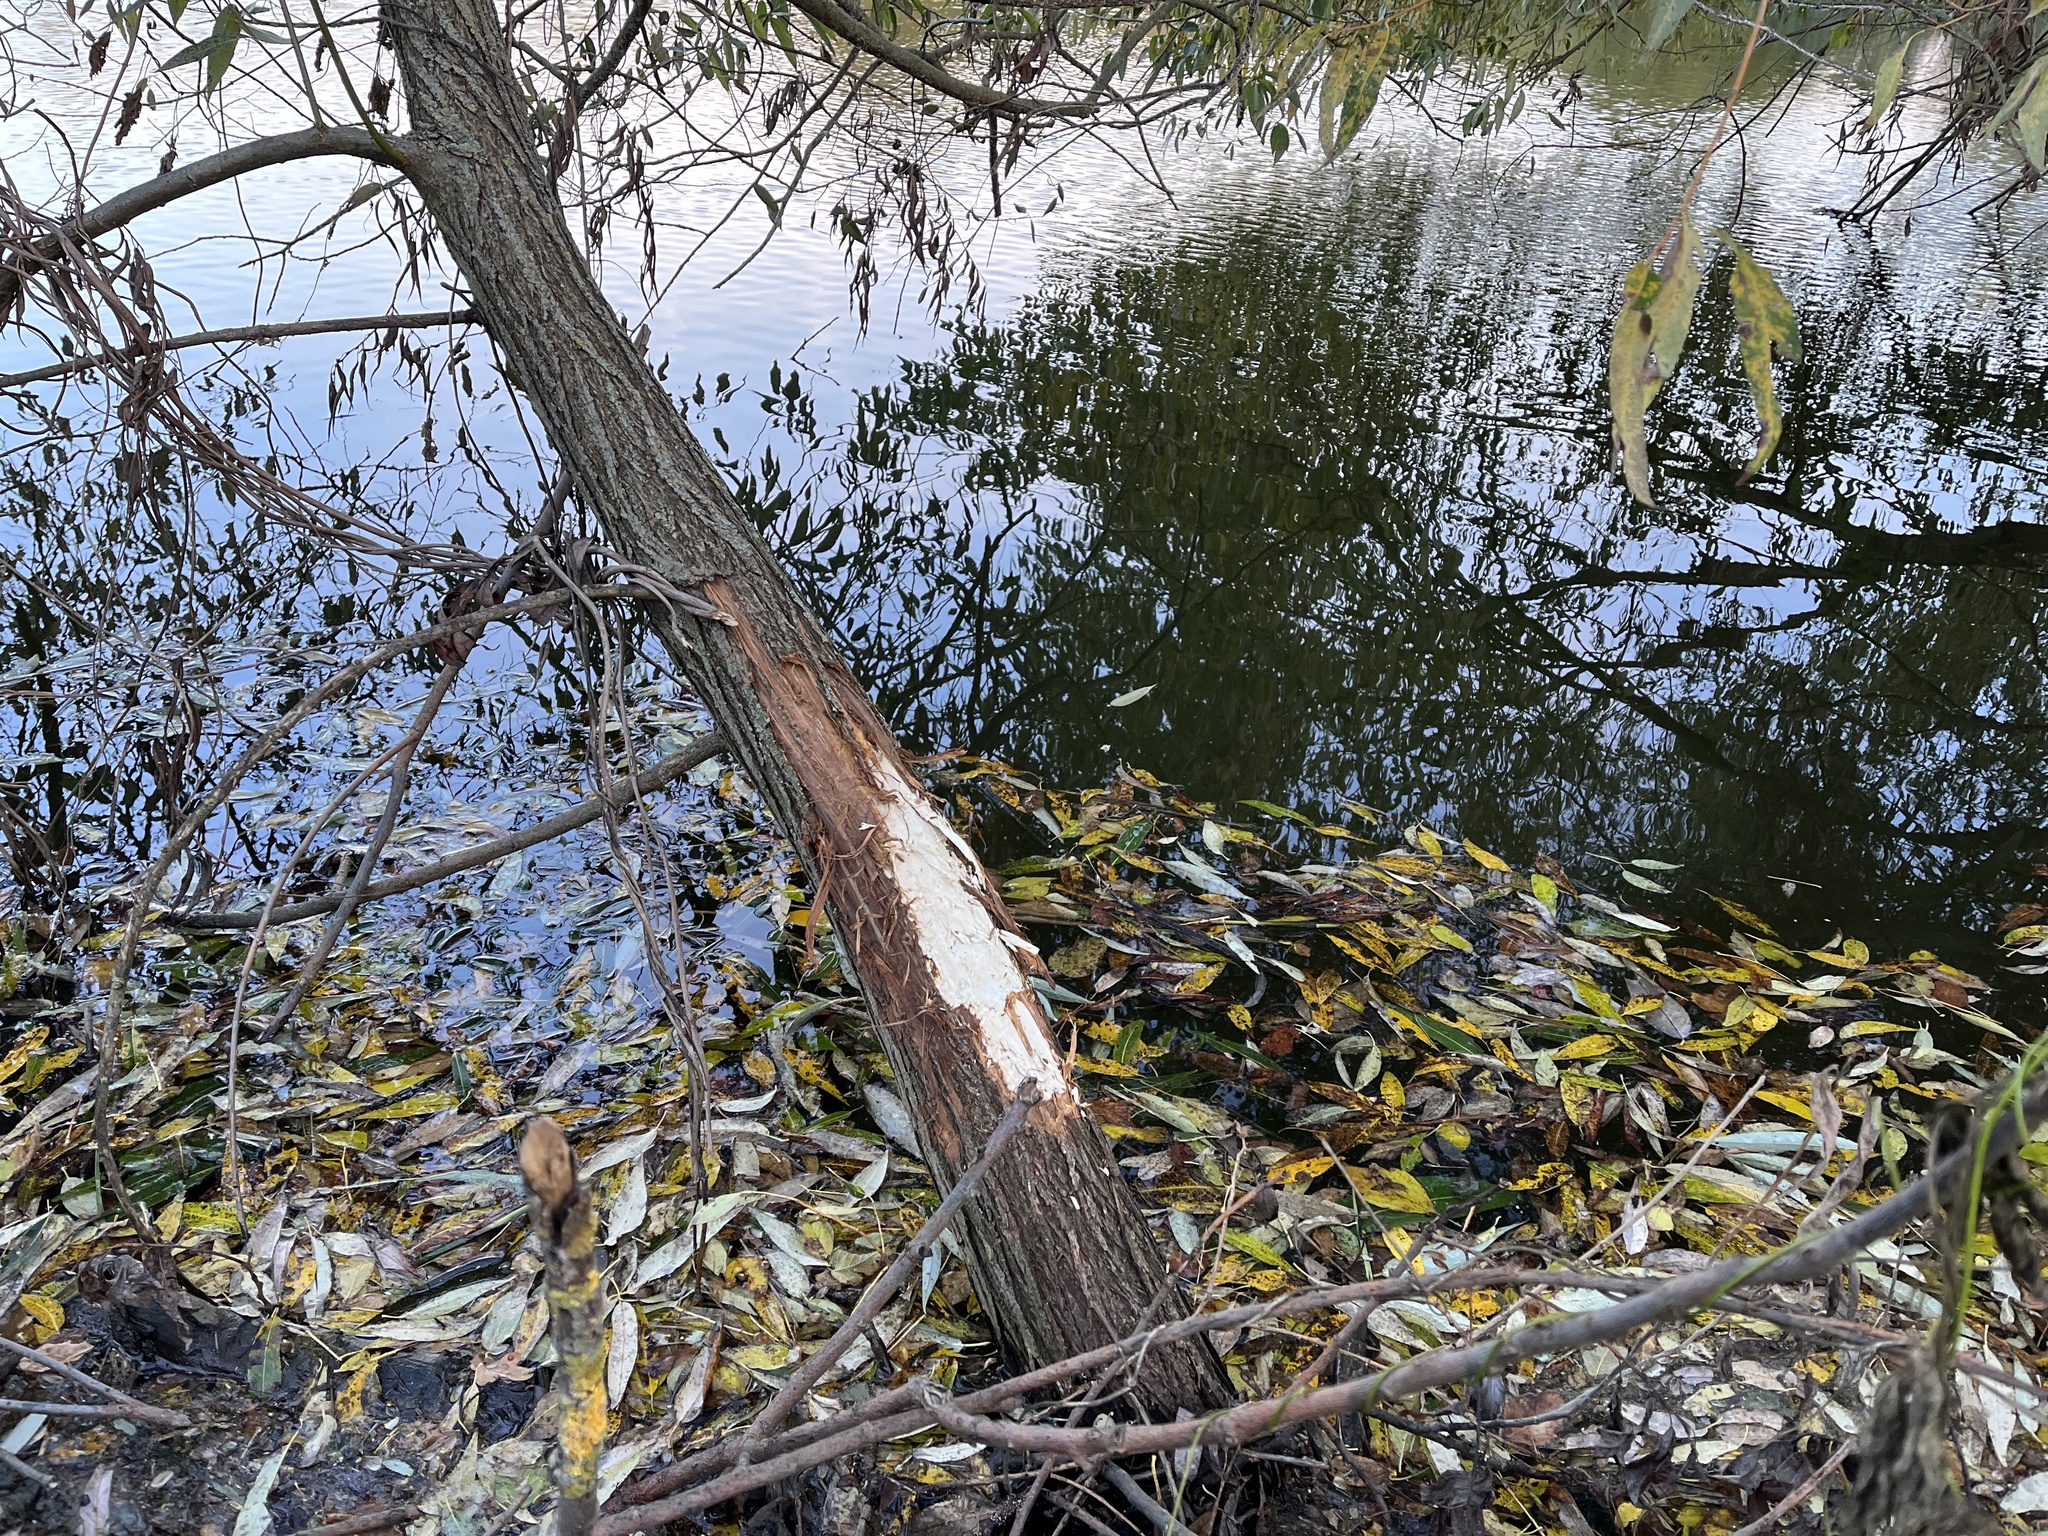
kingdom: Animalia
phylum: Chordata
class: Mammalia
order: Rodentia
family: Castoridae
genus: Castor
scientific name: Castor fiber
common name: Eurasian beaver
